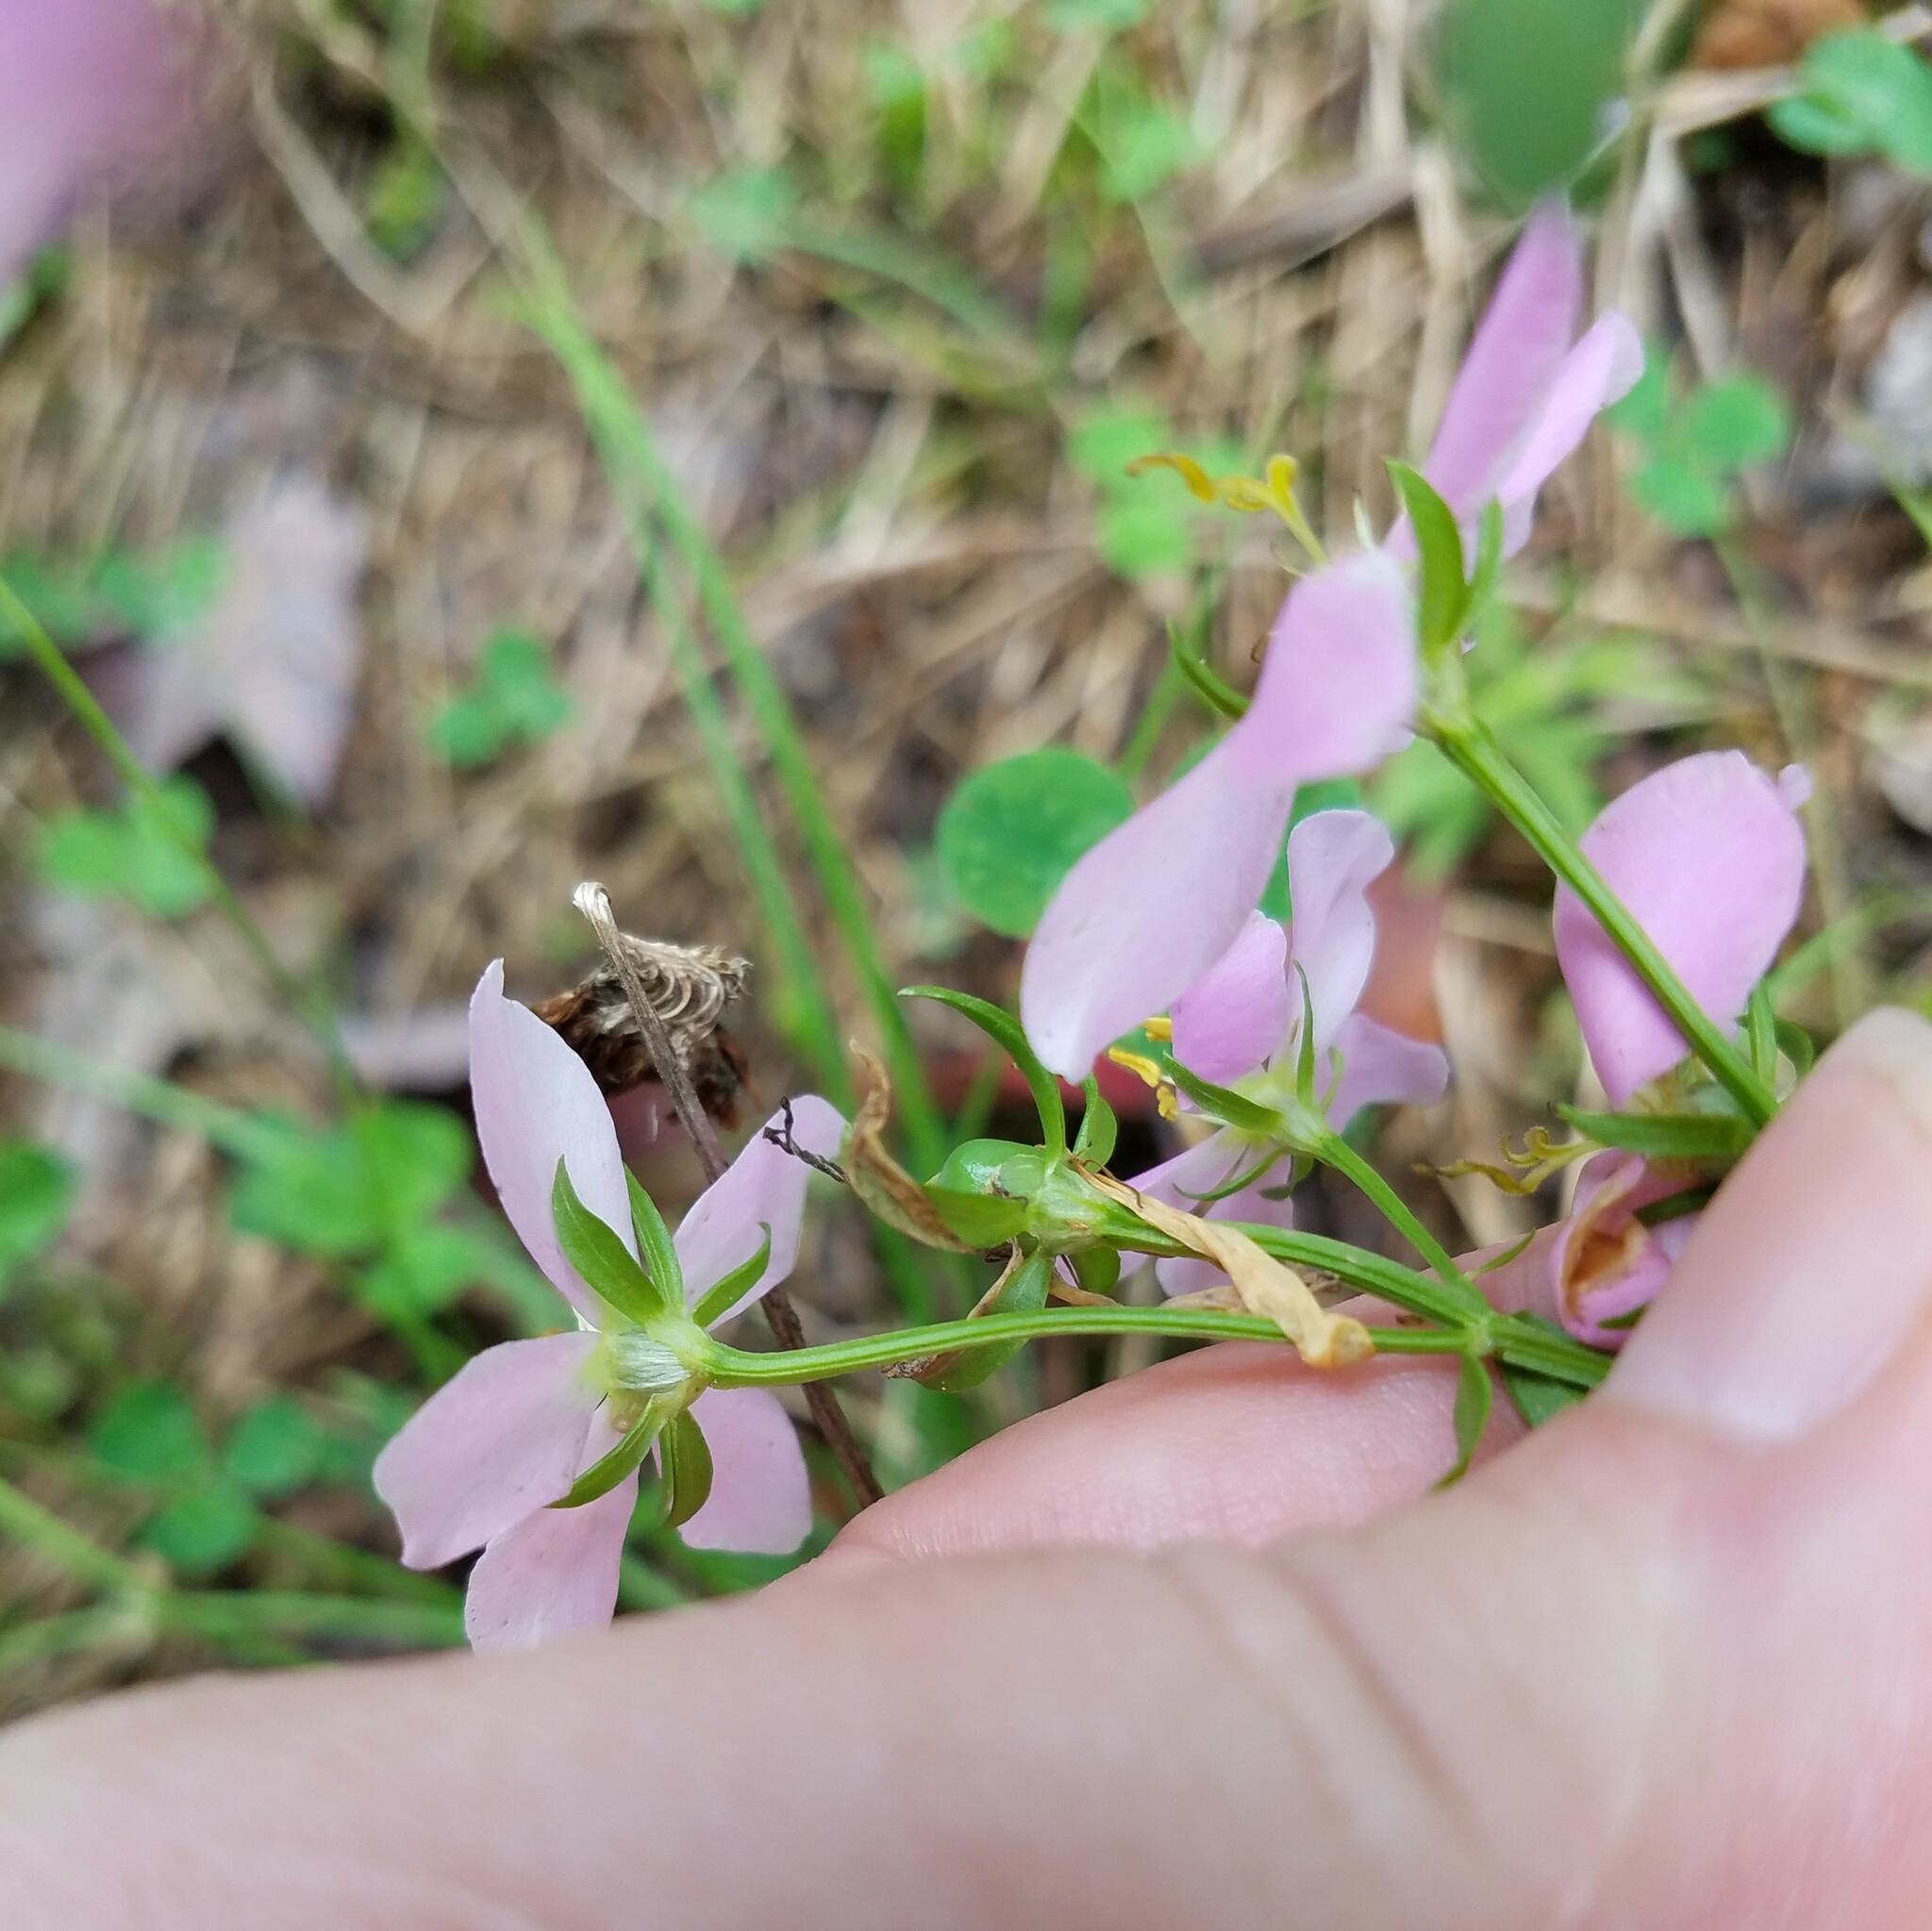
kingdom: Plantae
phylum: Tracheophyta
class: Magnoliopsida
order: Gentianales
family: Gentianaceae
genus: Sabatia
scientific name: Sabatia angularis
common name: Rose-pink
